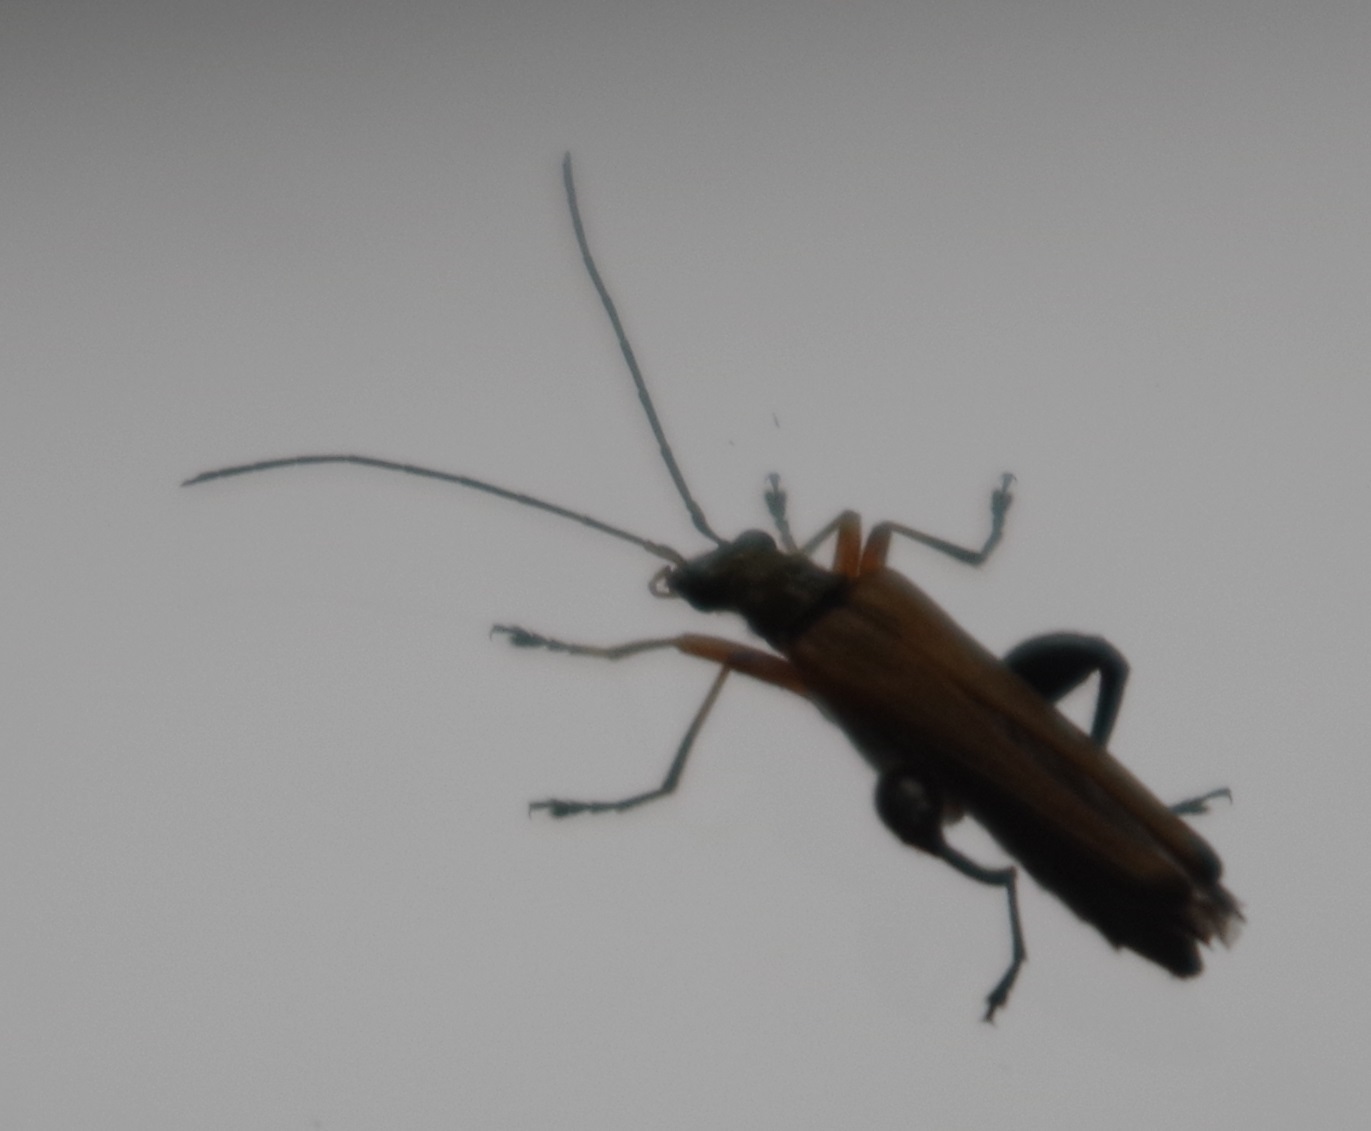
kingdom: Animalia
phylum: Arthropoda
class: Insecta
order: Coleoptera
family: Oedemeridae
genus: Oedemera
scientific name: Oedemera podagrariae
